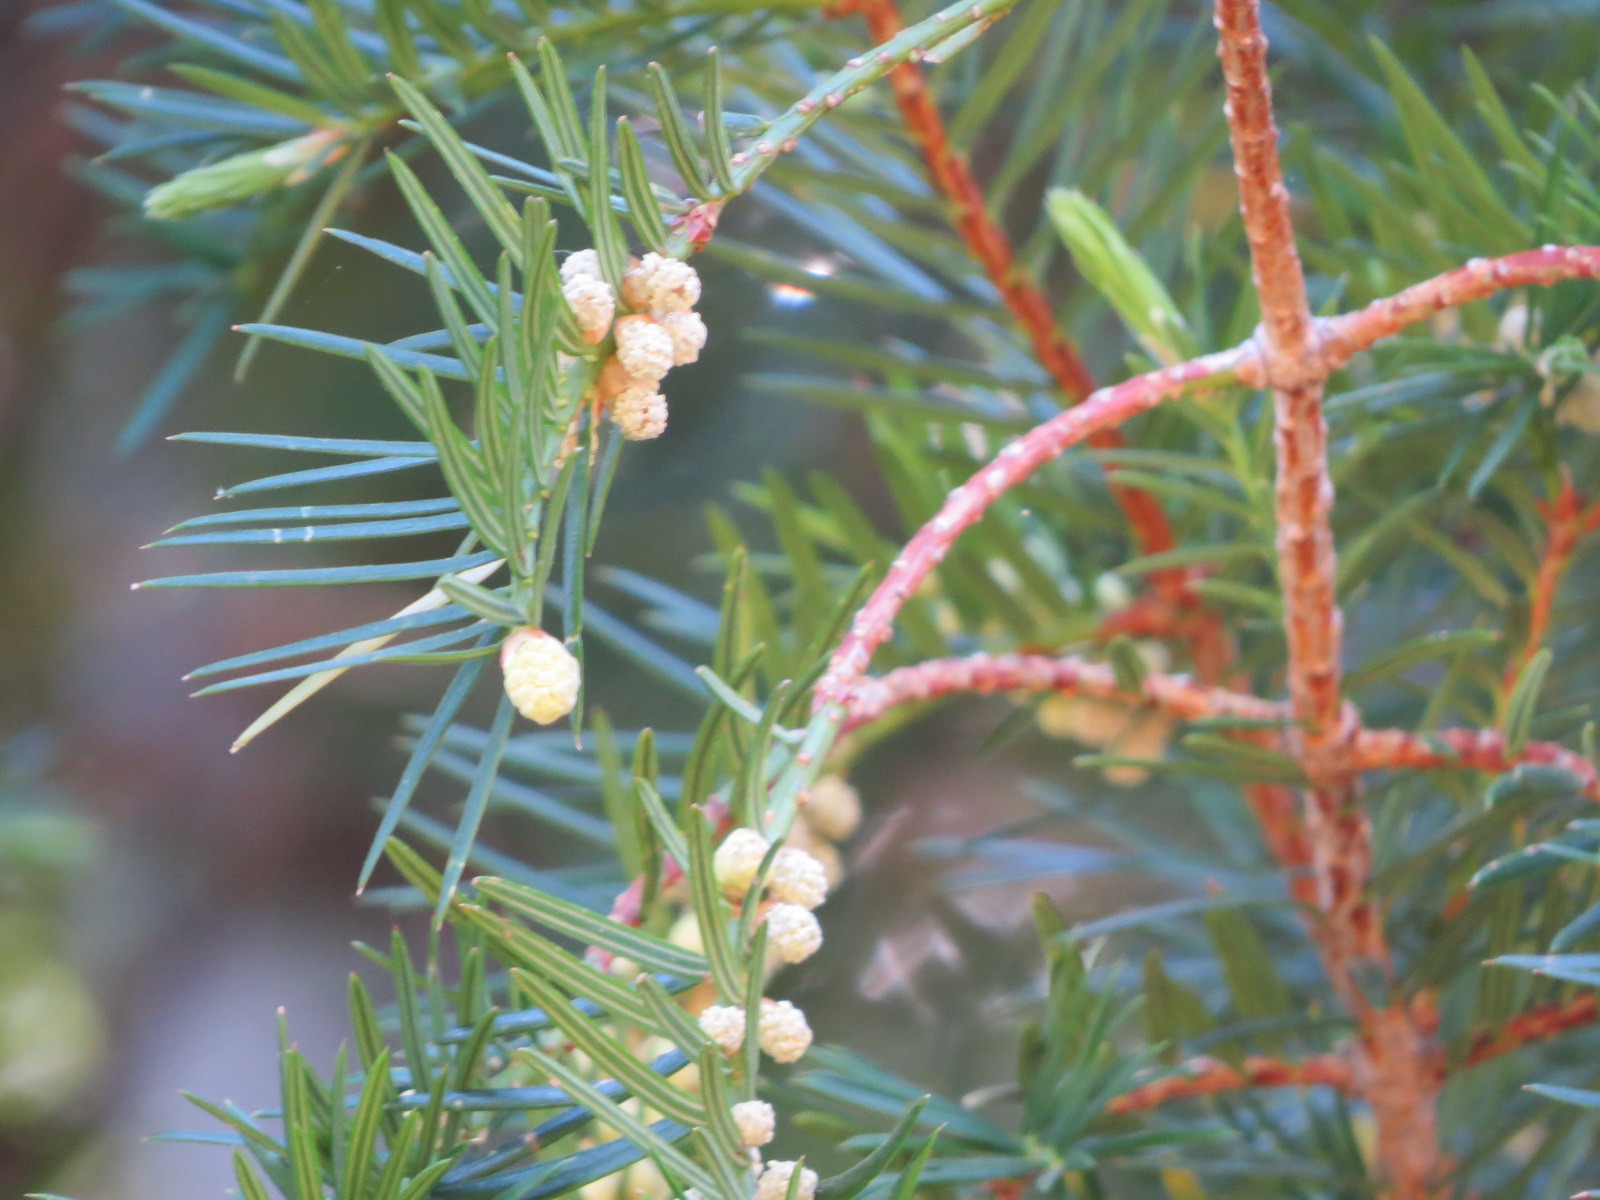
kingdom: Plantae
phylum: Tracheophyta
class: Pinopsida
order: Pinales
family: Taxaceae
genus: Torreya
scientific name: Torreya californica
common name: California torreya
